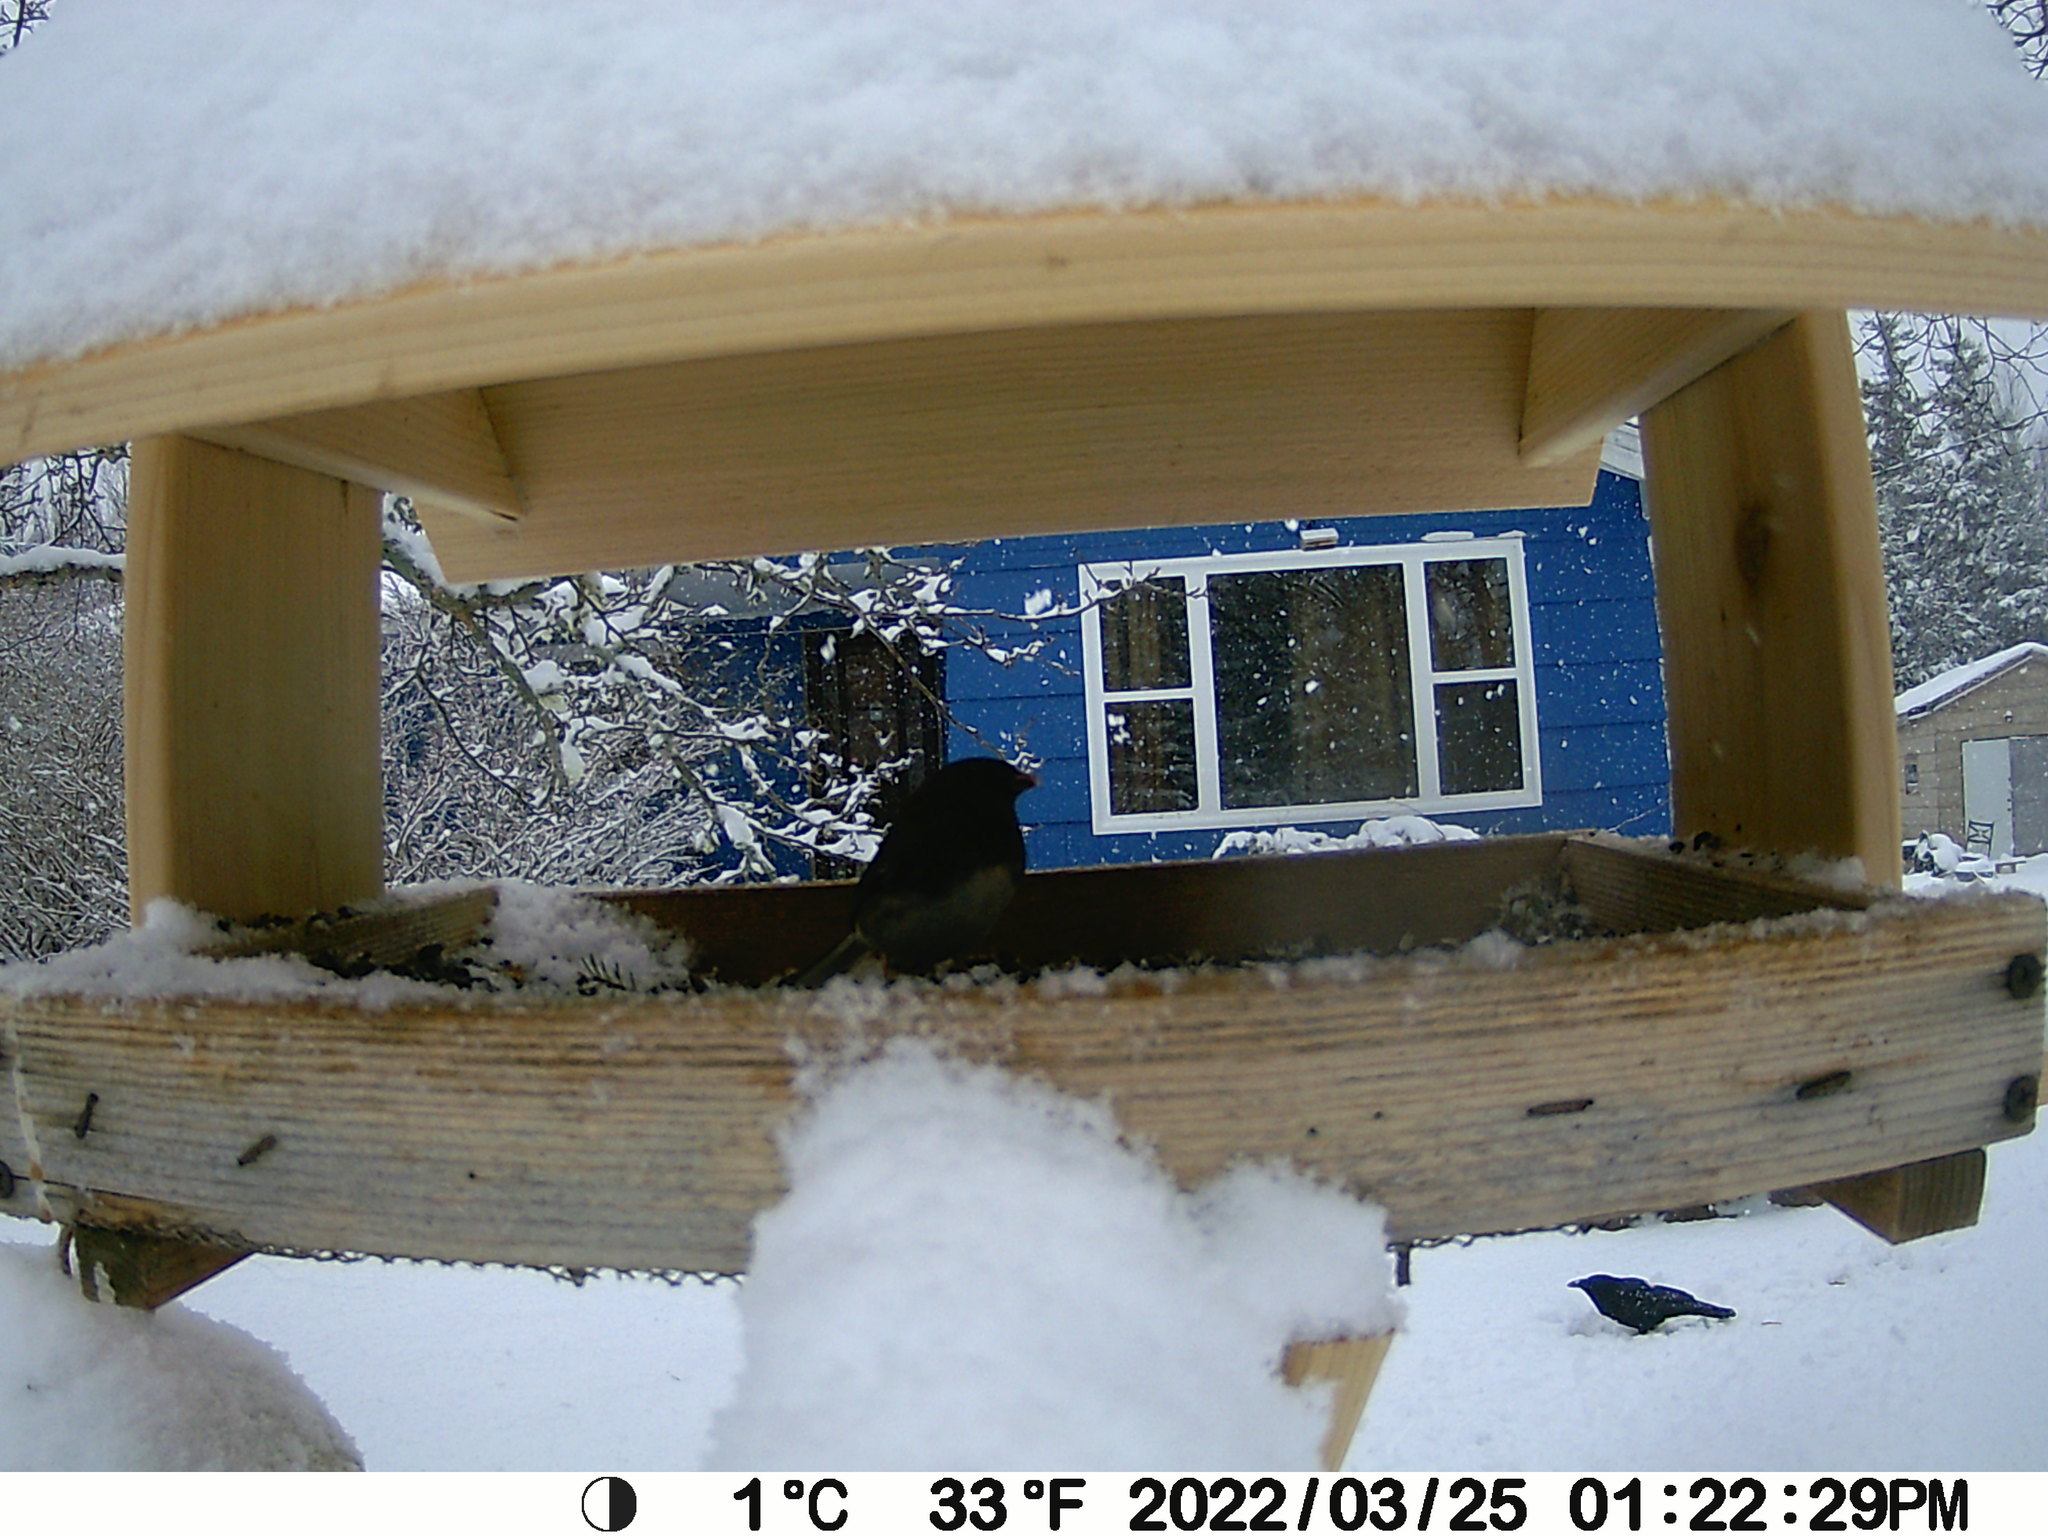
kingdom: Animalia
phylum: Chordata
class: Aves
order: Passeriformes
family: Passerellidae
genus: Junco
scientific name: Junco hyemalis
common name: Dark-eyed junco
